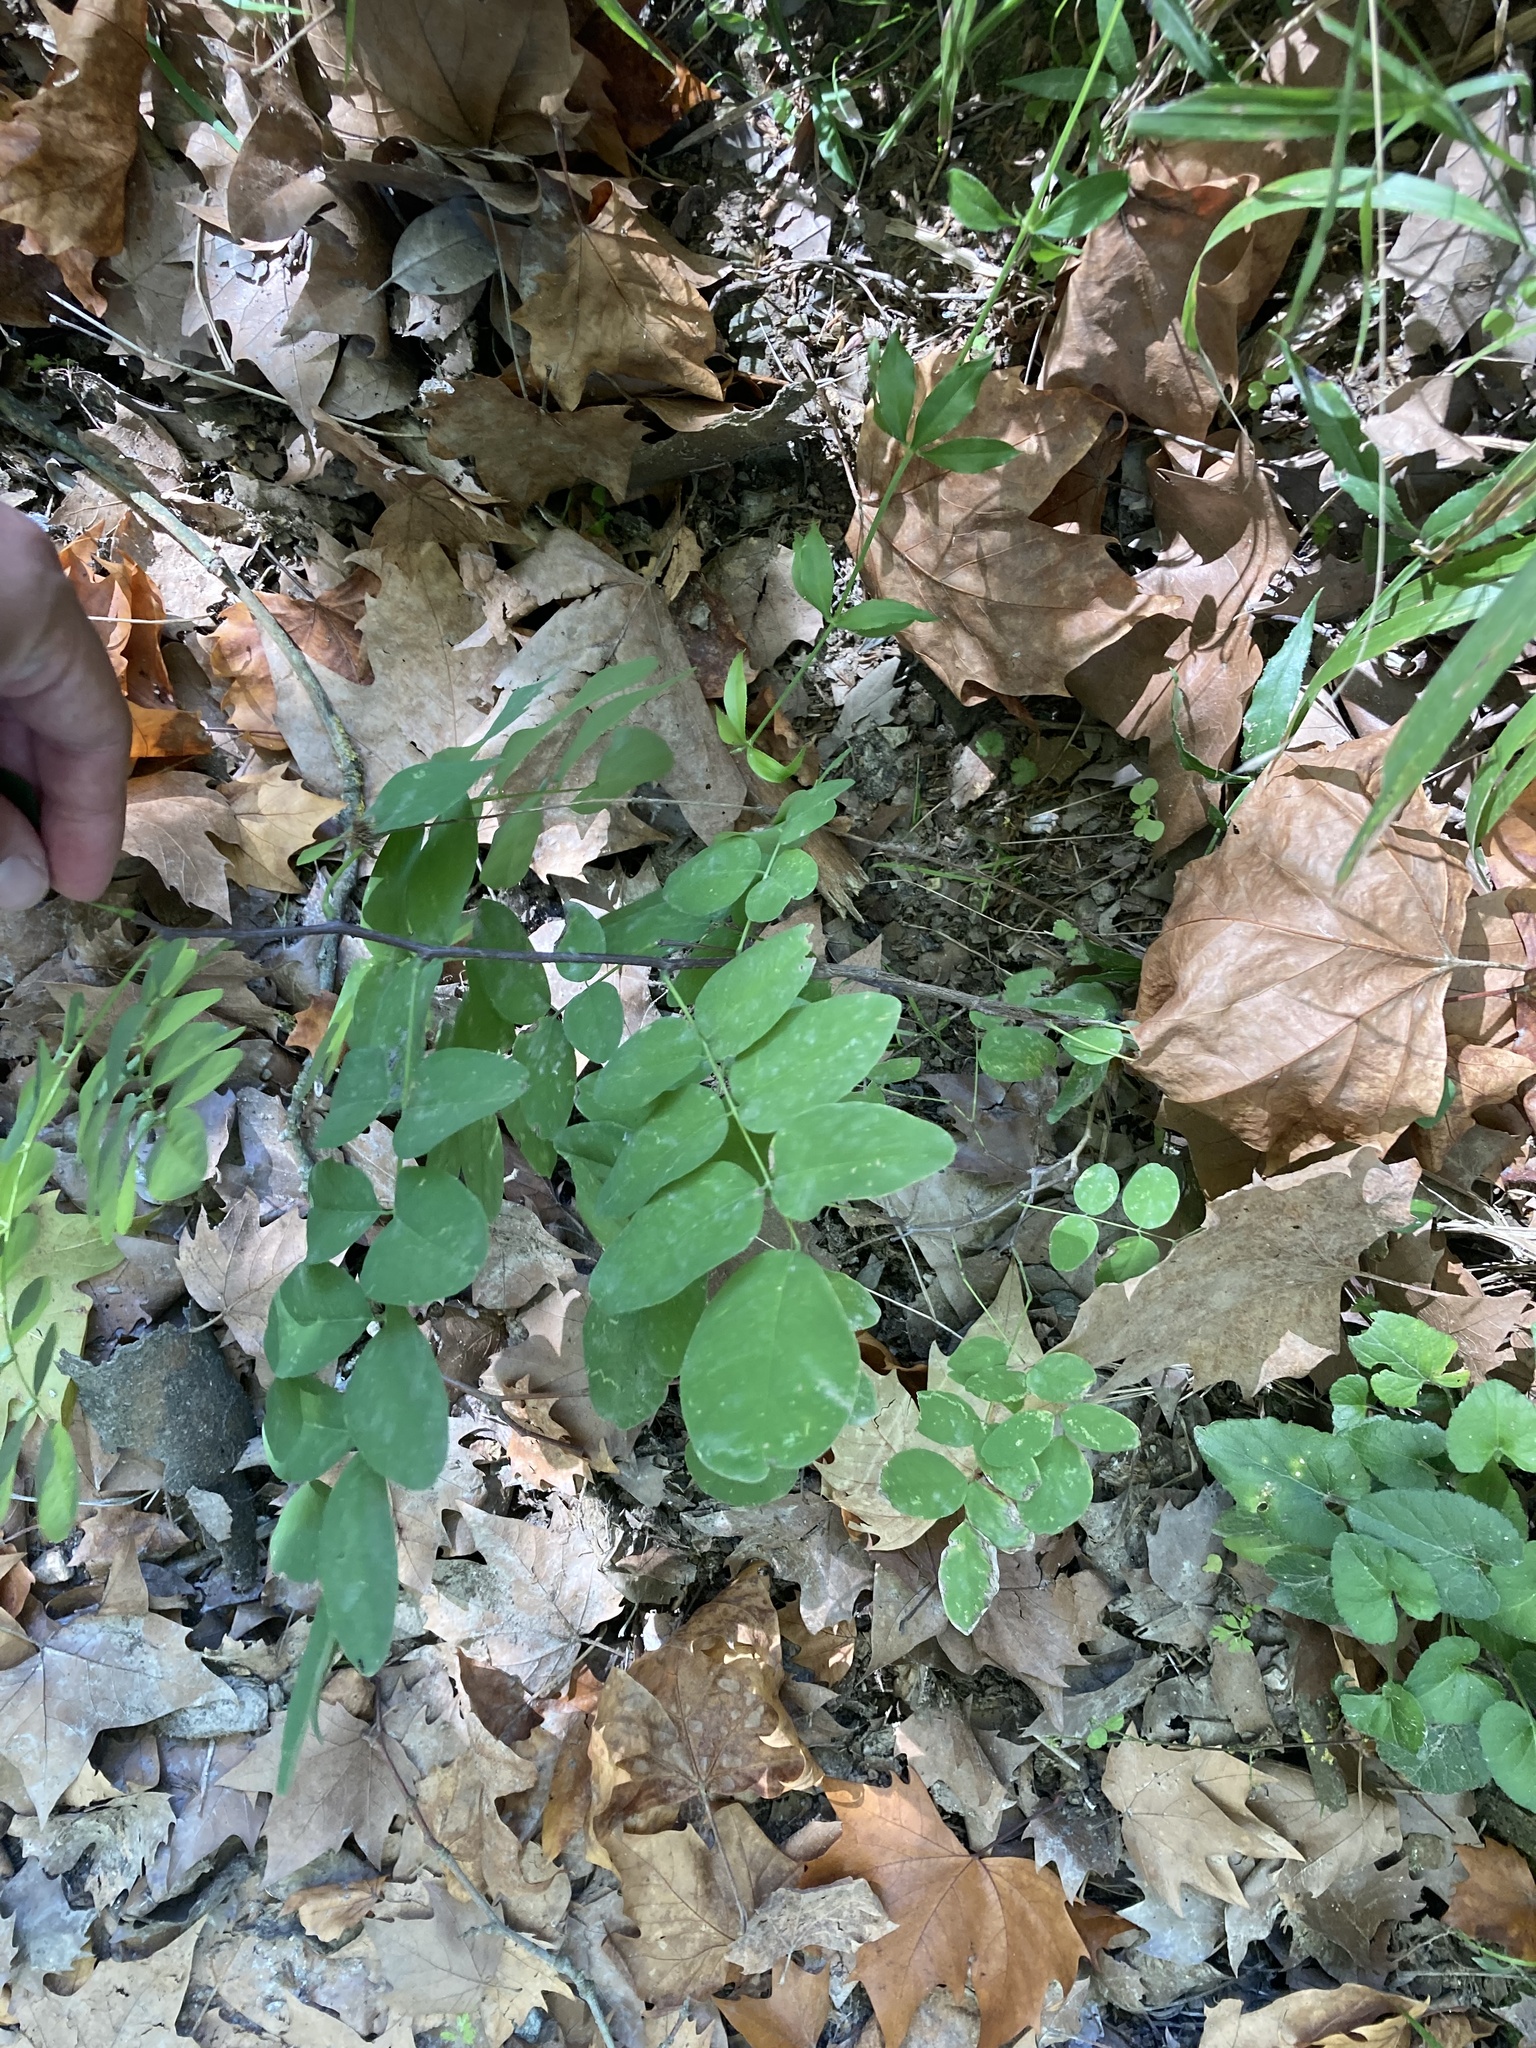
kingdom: Plantae
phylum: Tracheophyta
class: Magnoliopsida
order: Fabales
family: Fabaceae
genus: Robinia
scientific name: Robinia pseudoacacia
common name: Black locust
